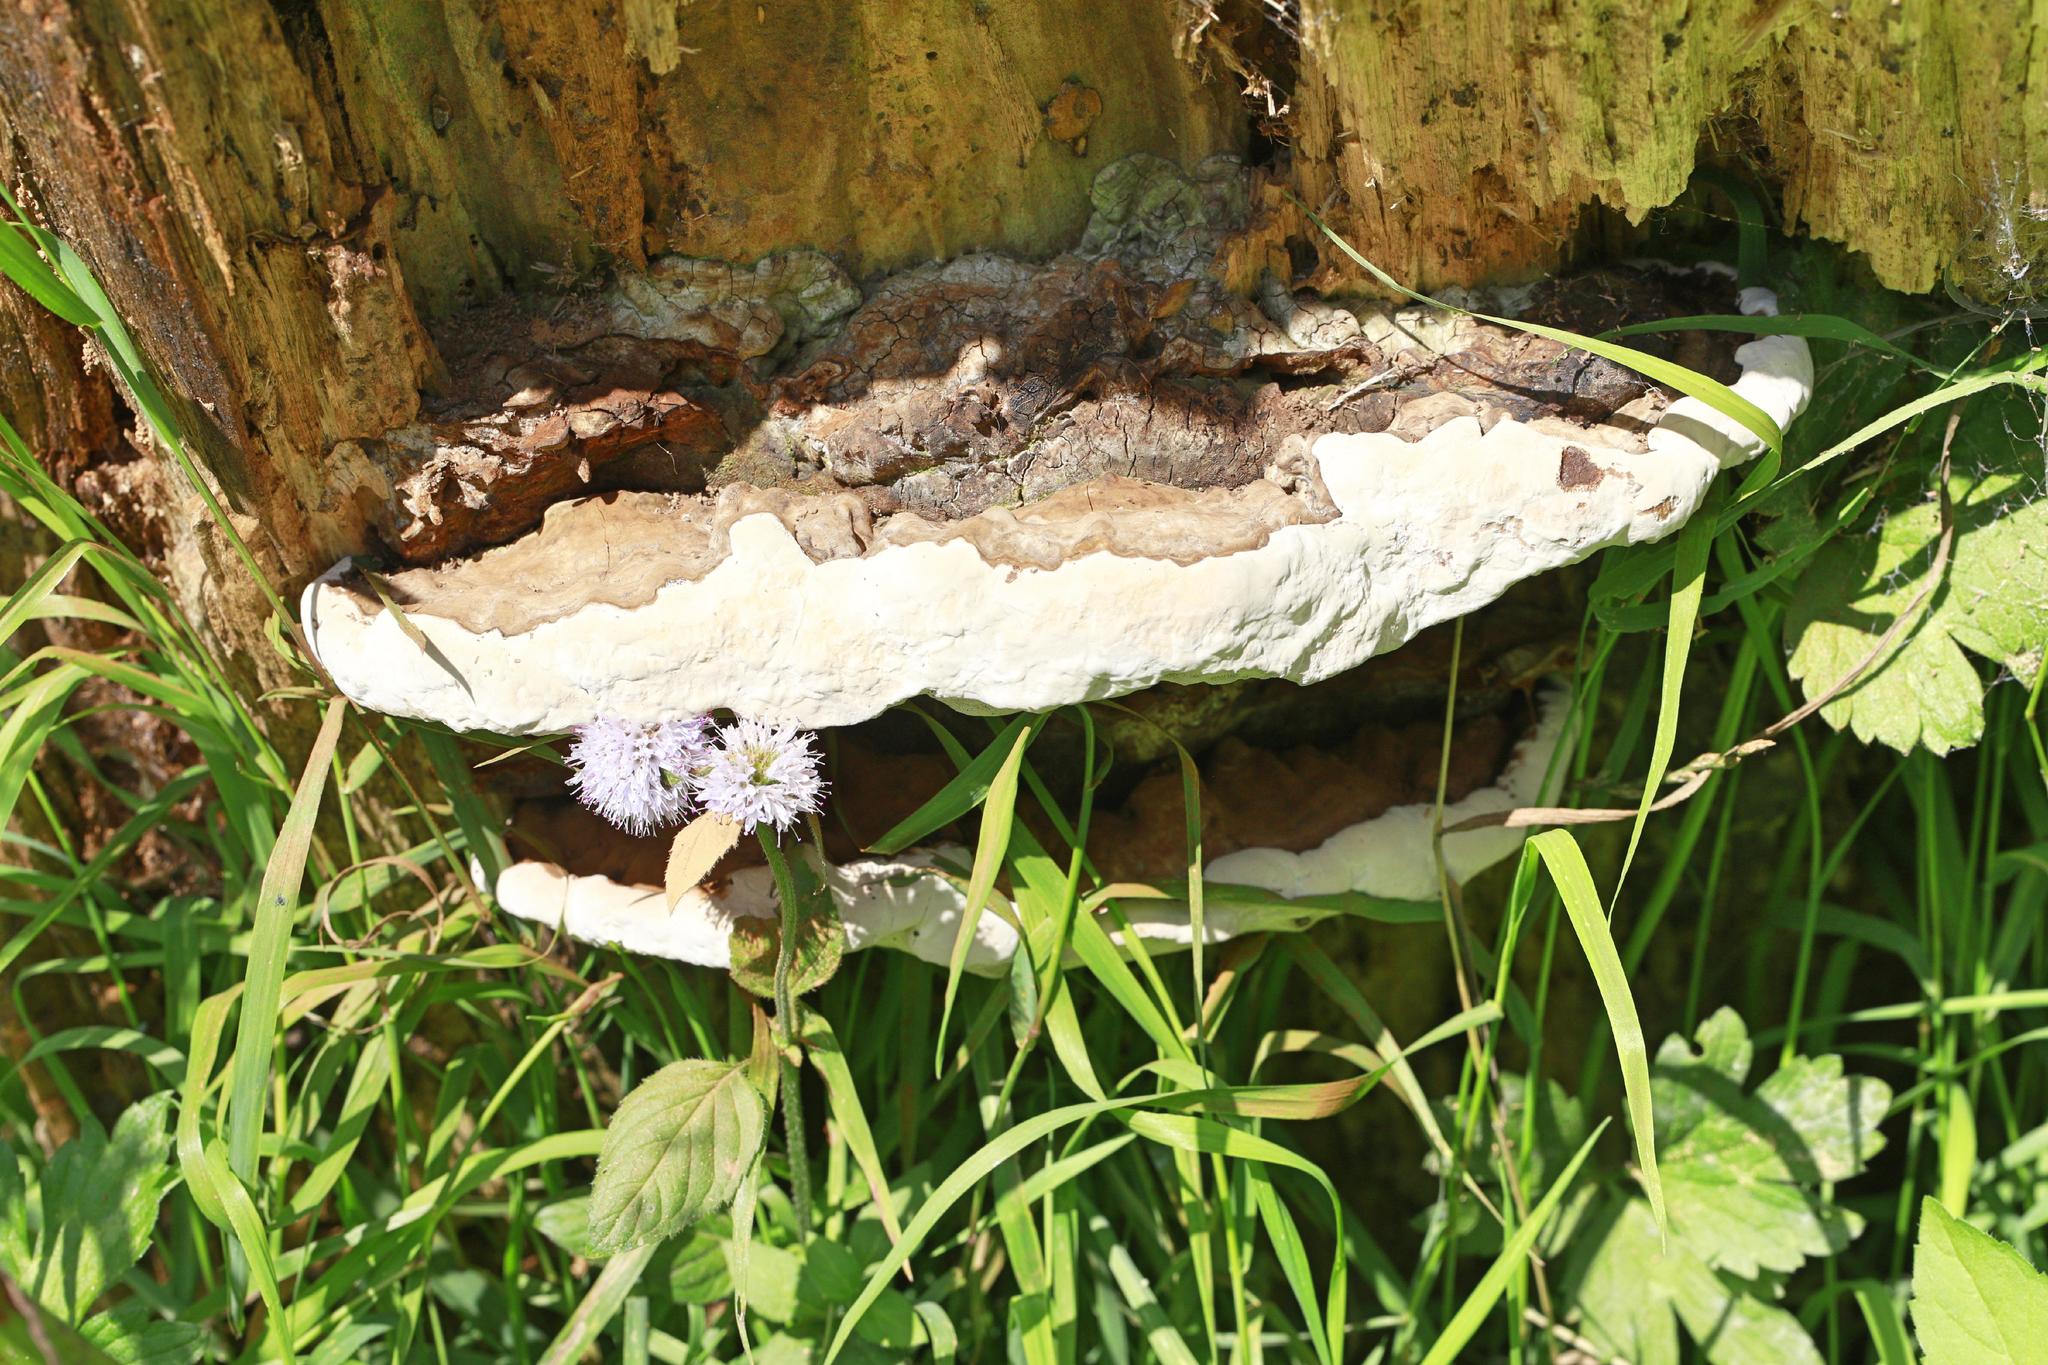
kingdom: Fungi
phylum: Basidiomycota
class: Agaricomycetes
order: Polyporales
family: Polyporaceae
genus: Ganoderma
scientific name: Ganoderma applanatum
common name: Artist's bracket
